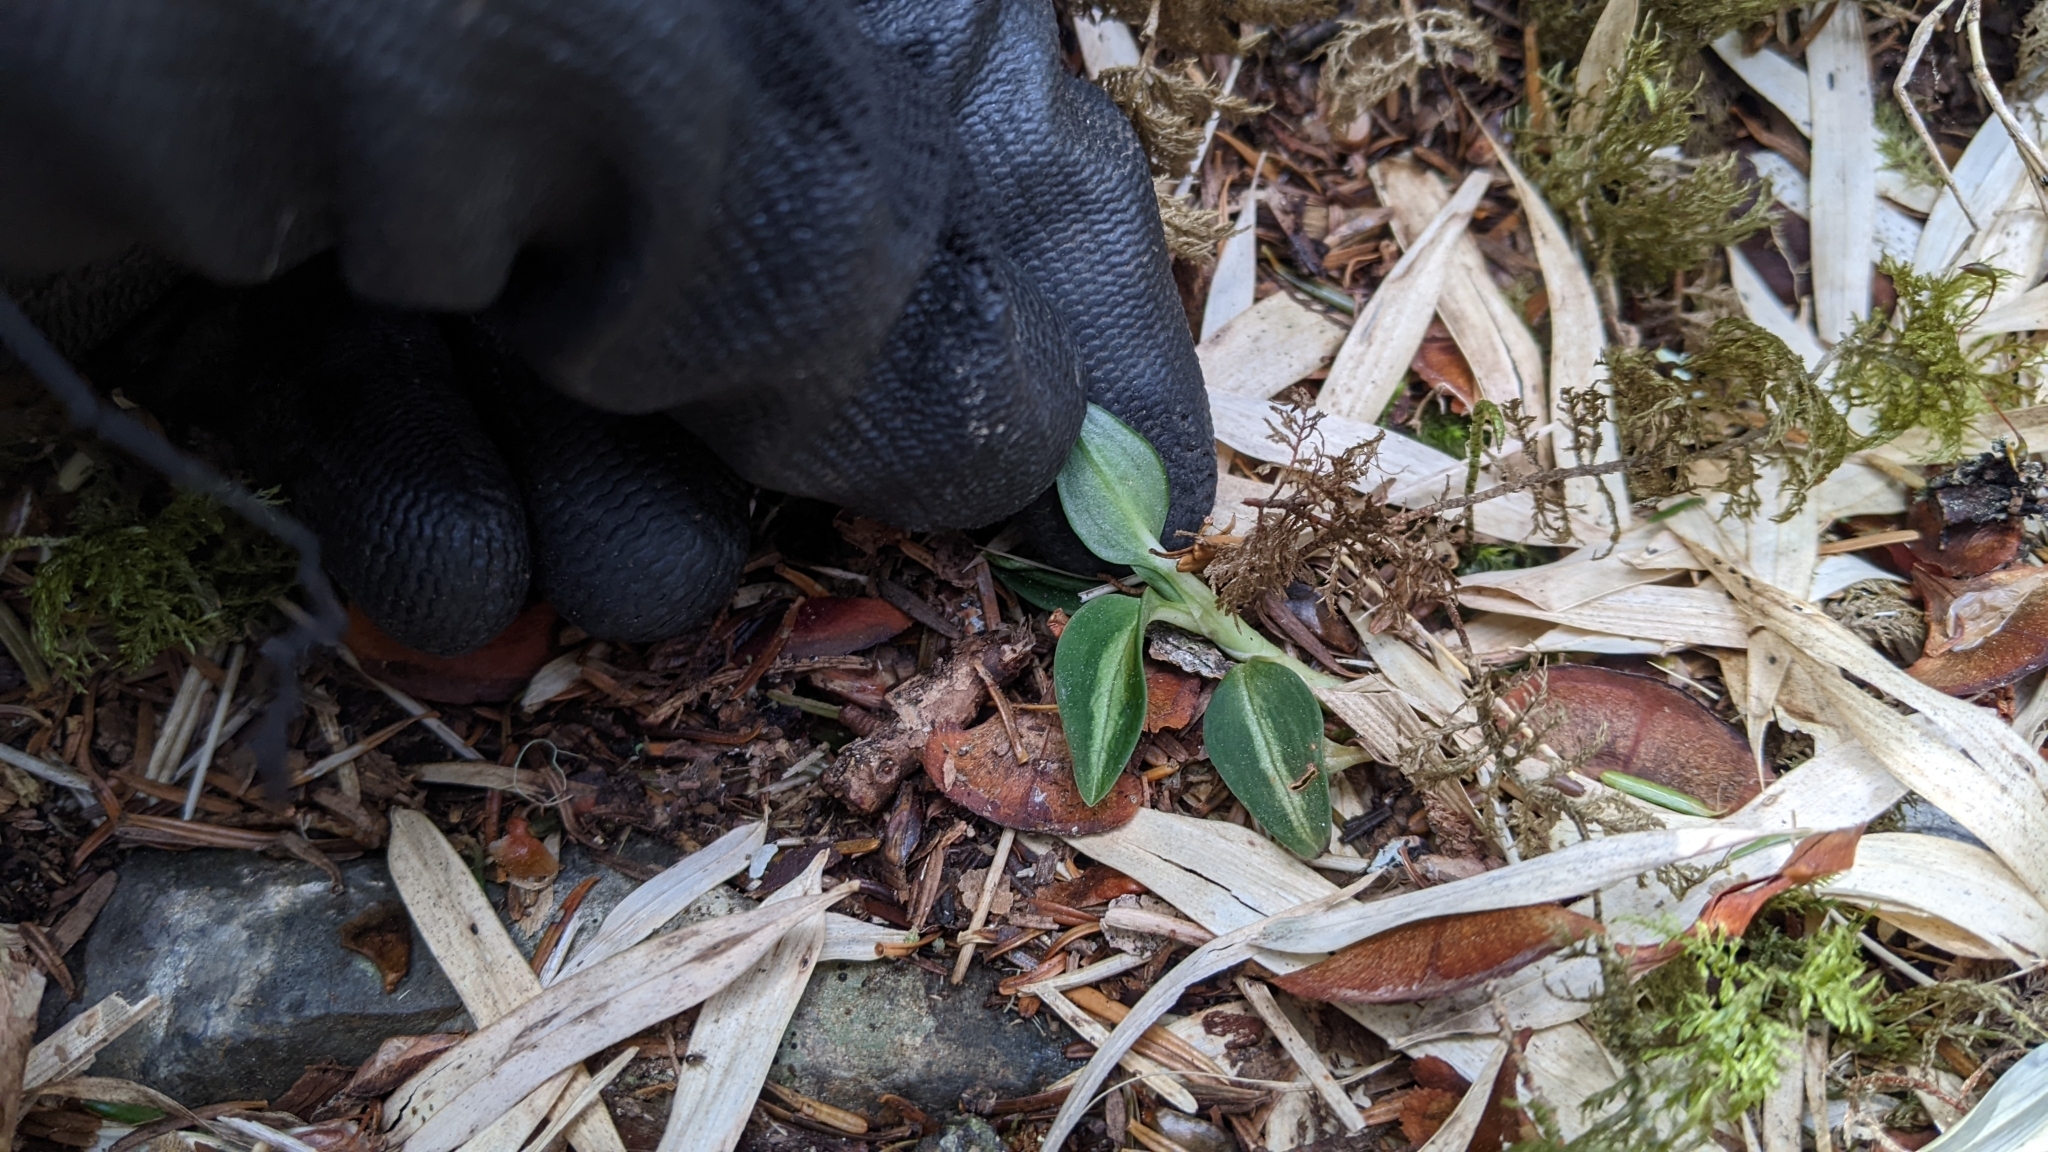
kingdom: Plantae
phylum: Tracheophyta
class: Liliopsida
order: Asparagales
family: Orchidaceae
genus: Goodyera
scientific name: Goodyera nankoensis
